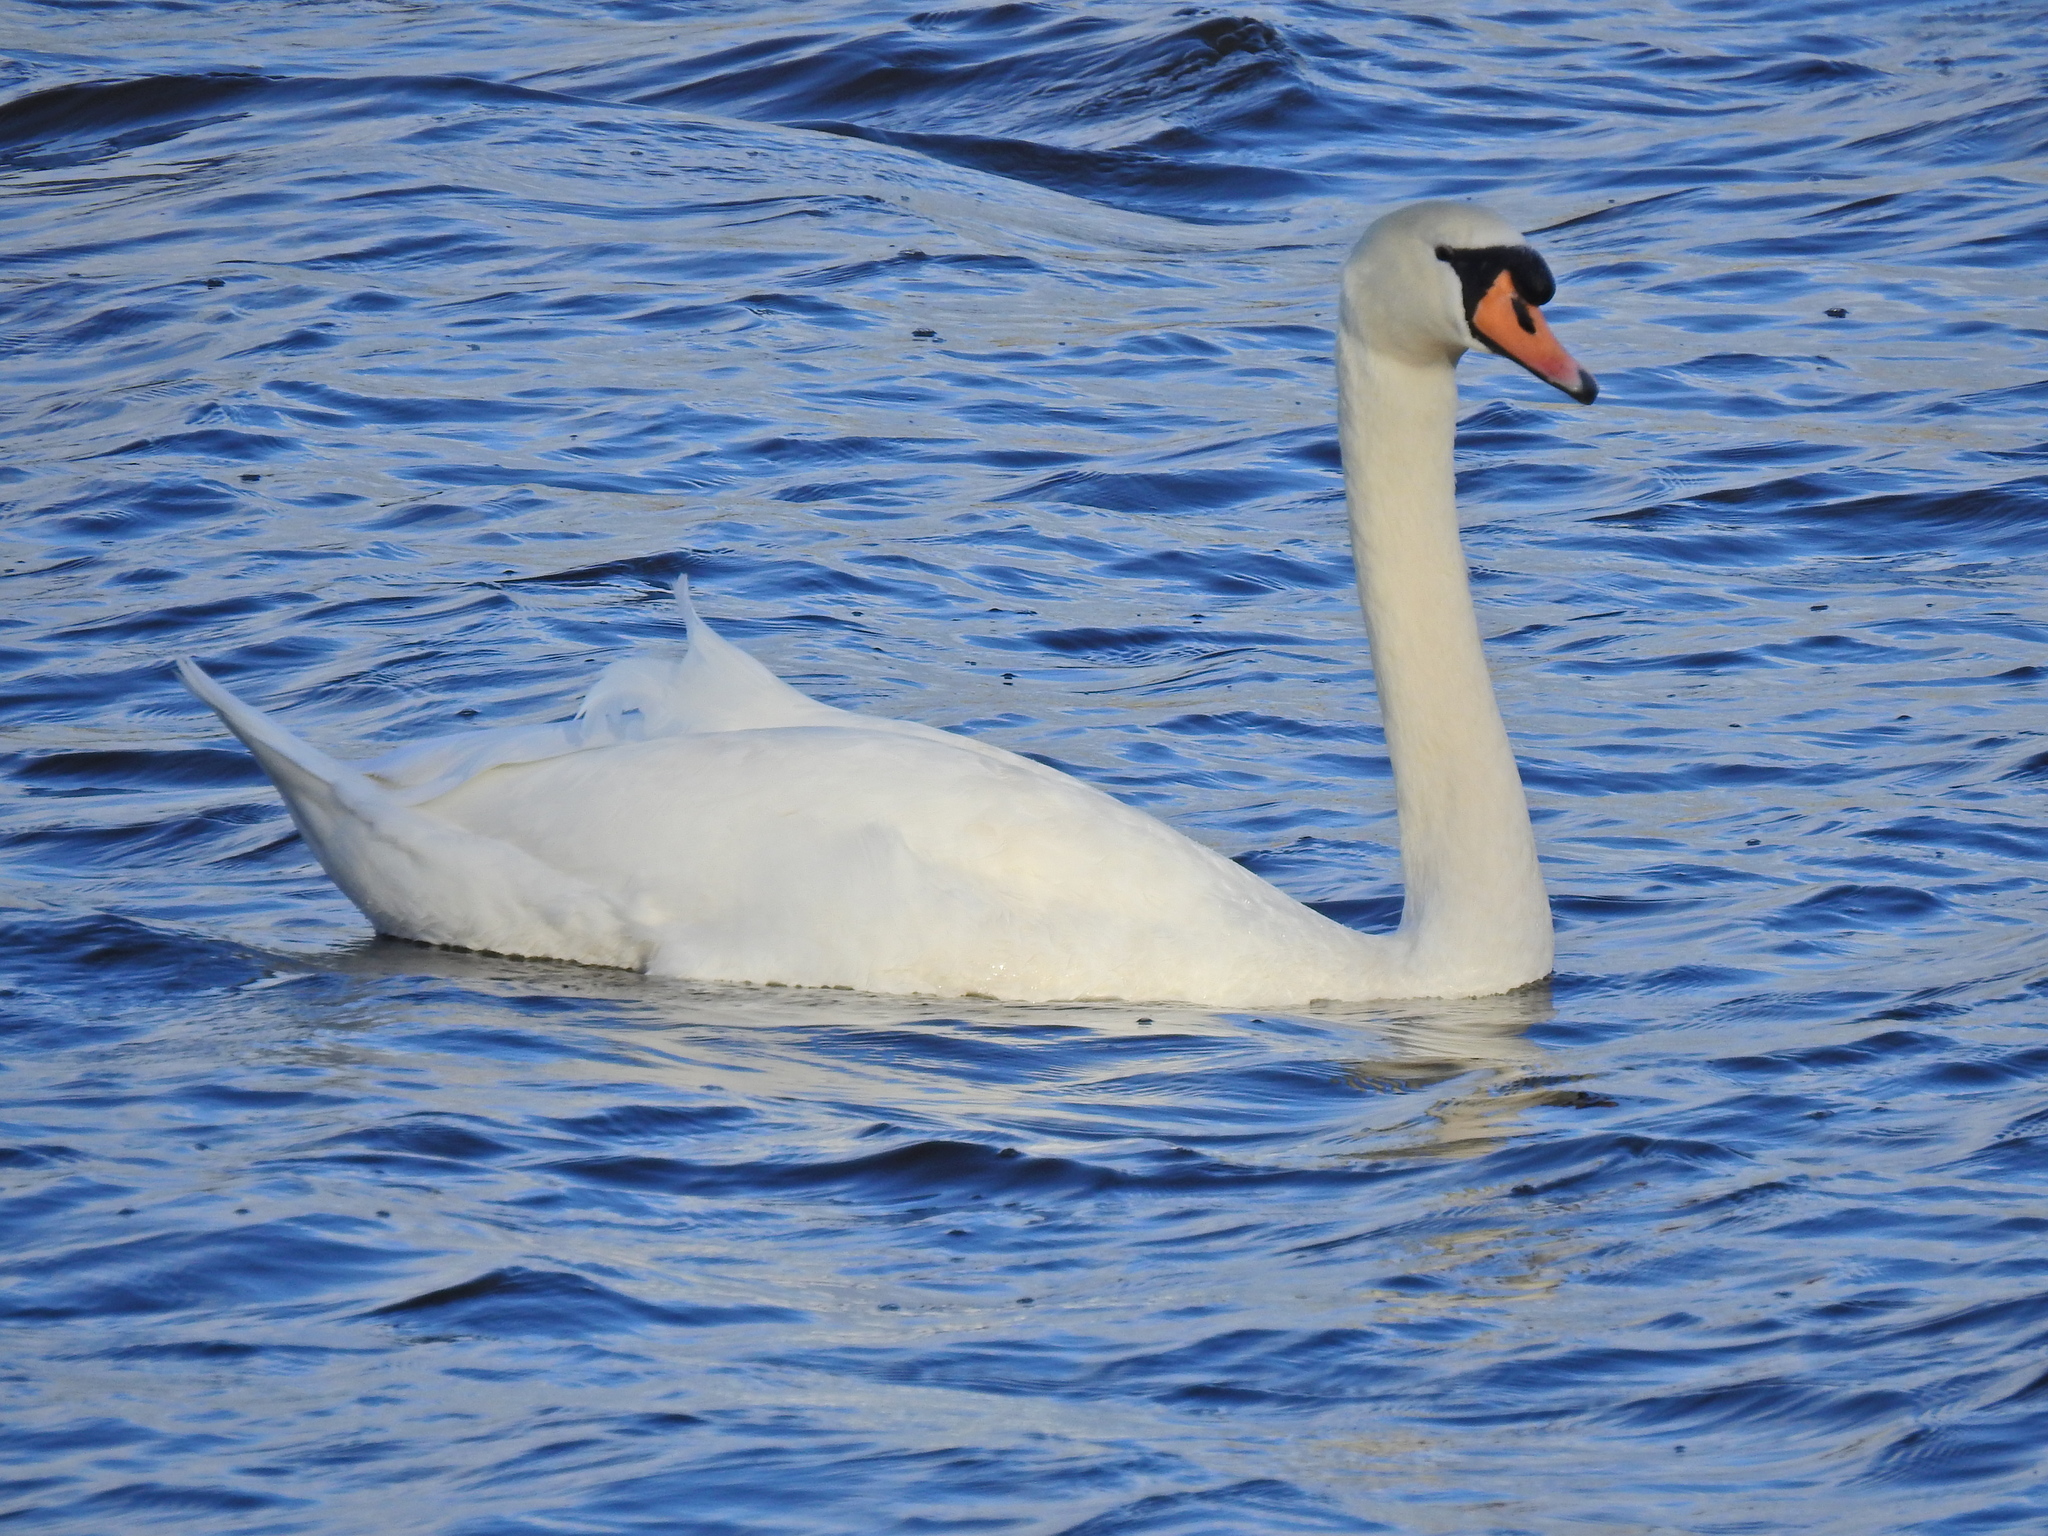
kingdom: Animalia
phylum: Chordata
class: Aves
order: Anseriformes
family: Anatidae
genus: Cygnus
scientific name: Cygnus olor
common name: Mute swan
